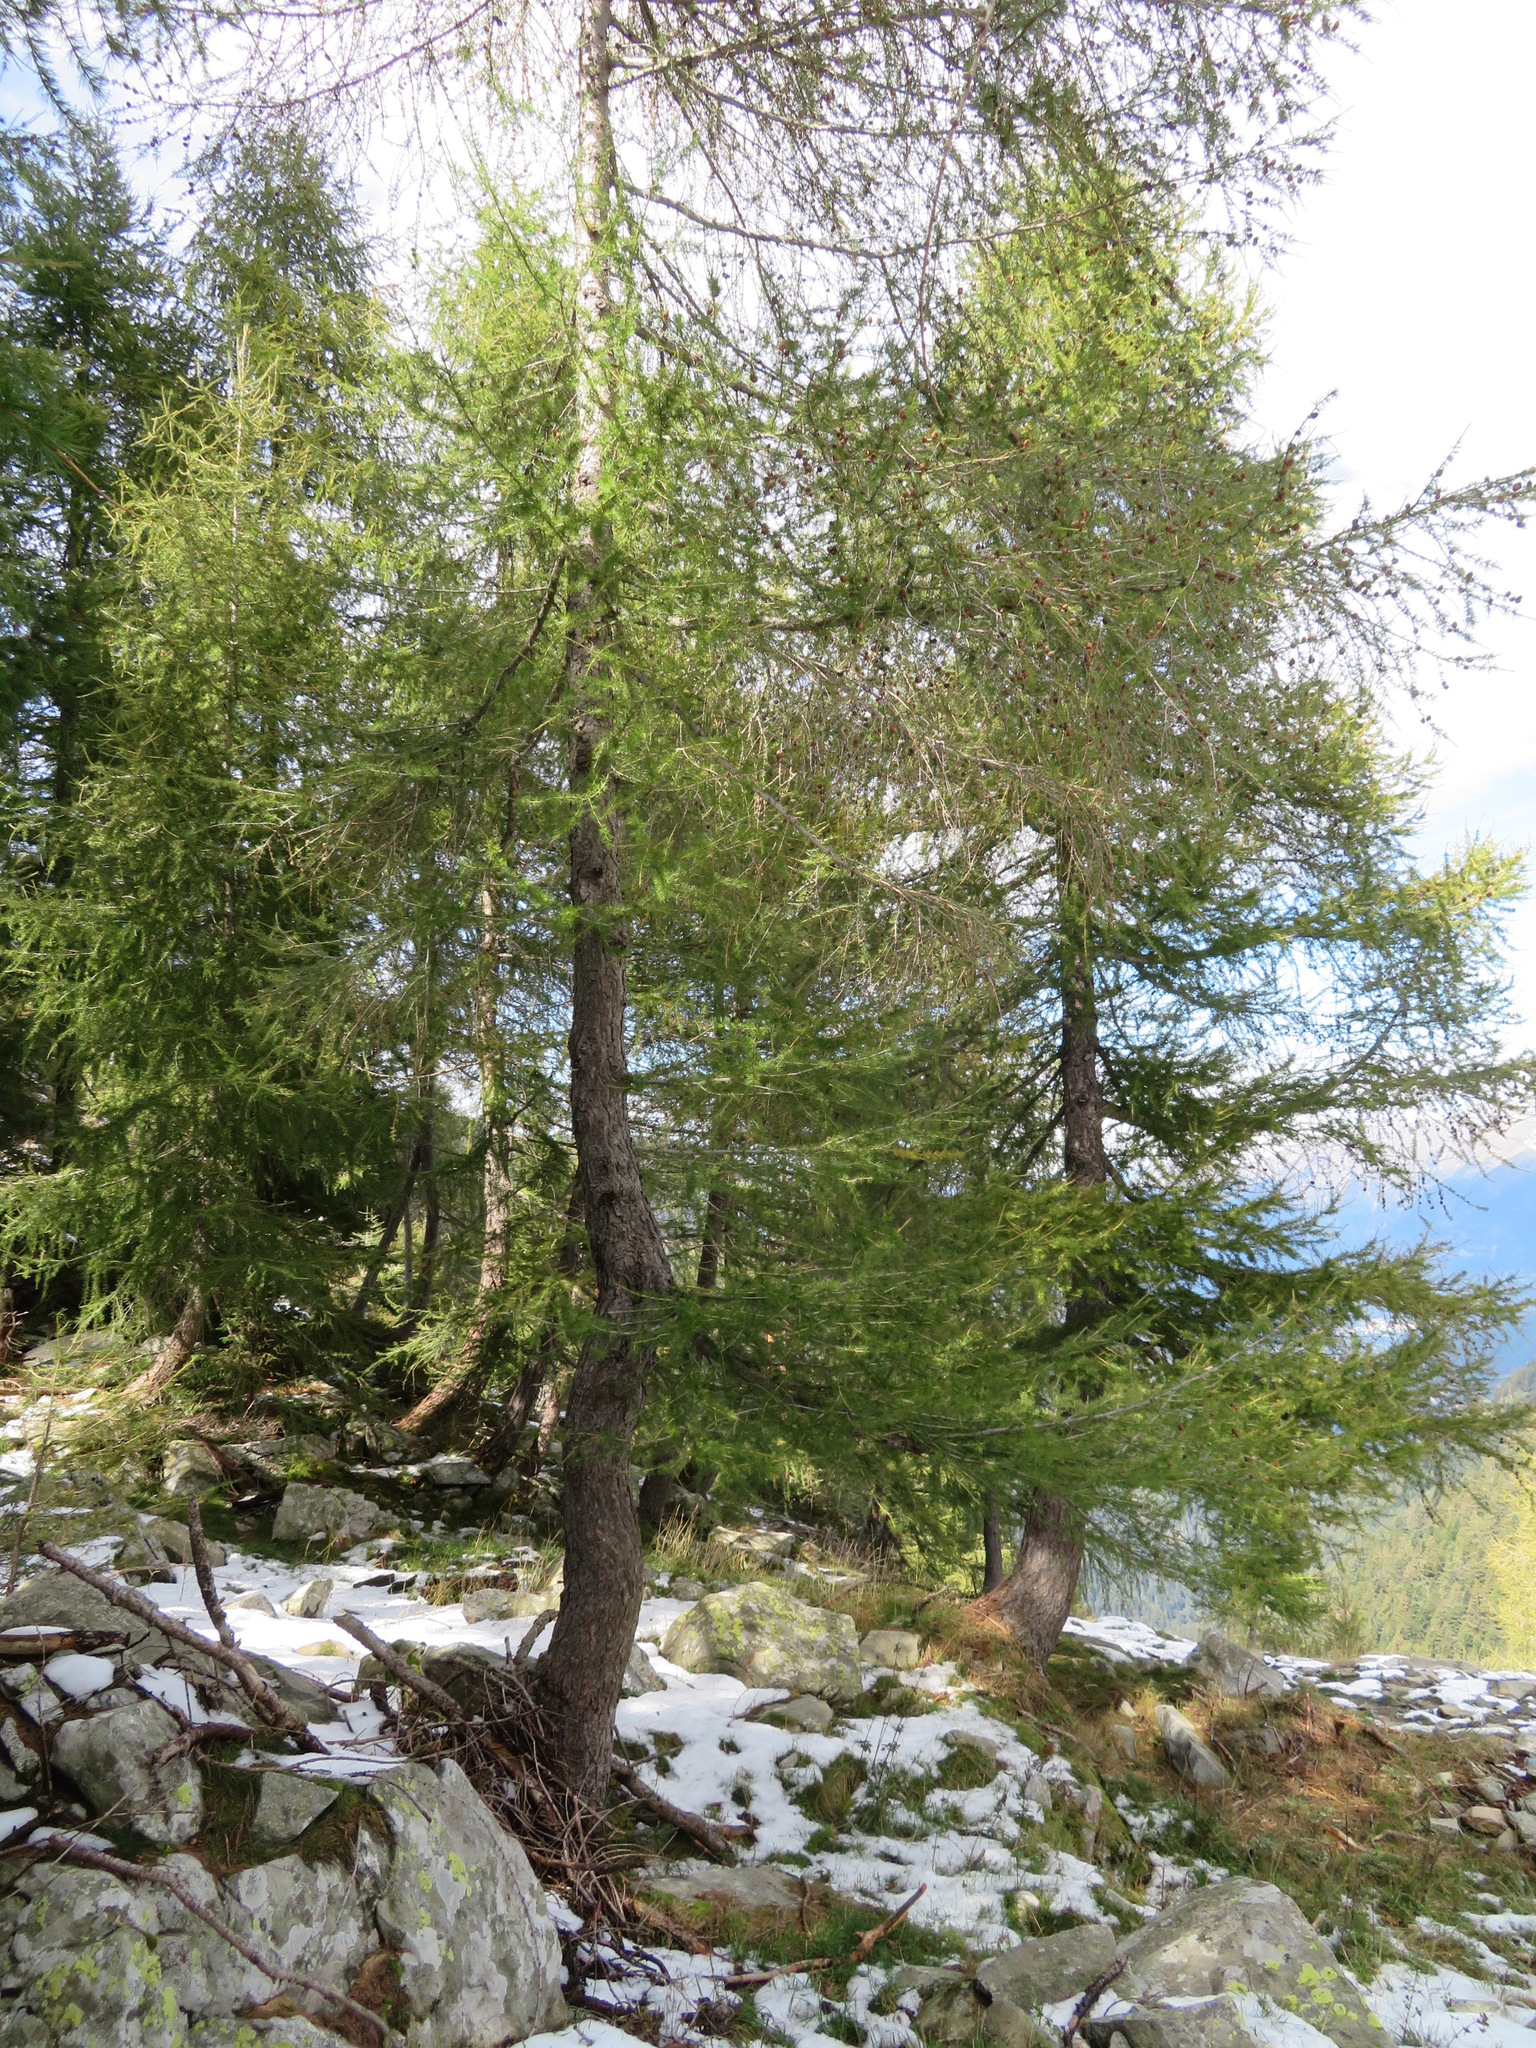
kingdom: Plantae
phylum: Tracheophyta
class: Pinopsida
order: Pinales
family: Pinaceae
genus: Larix
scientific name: Larix decidua
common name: European larch
